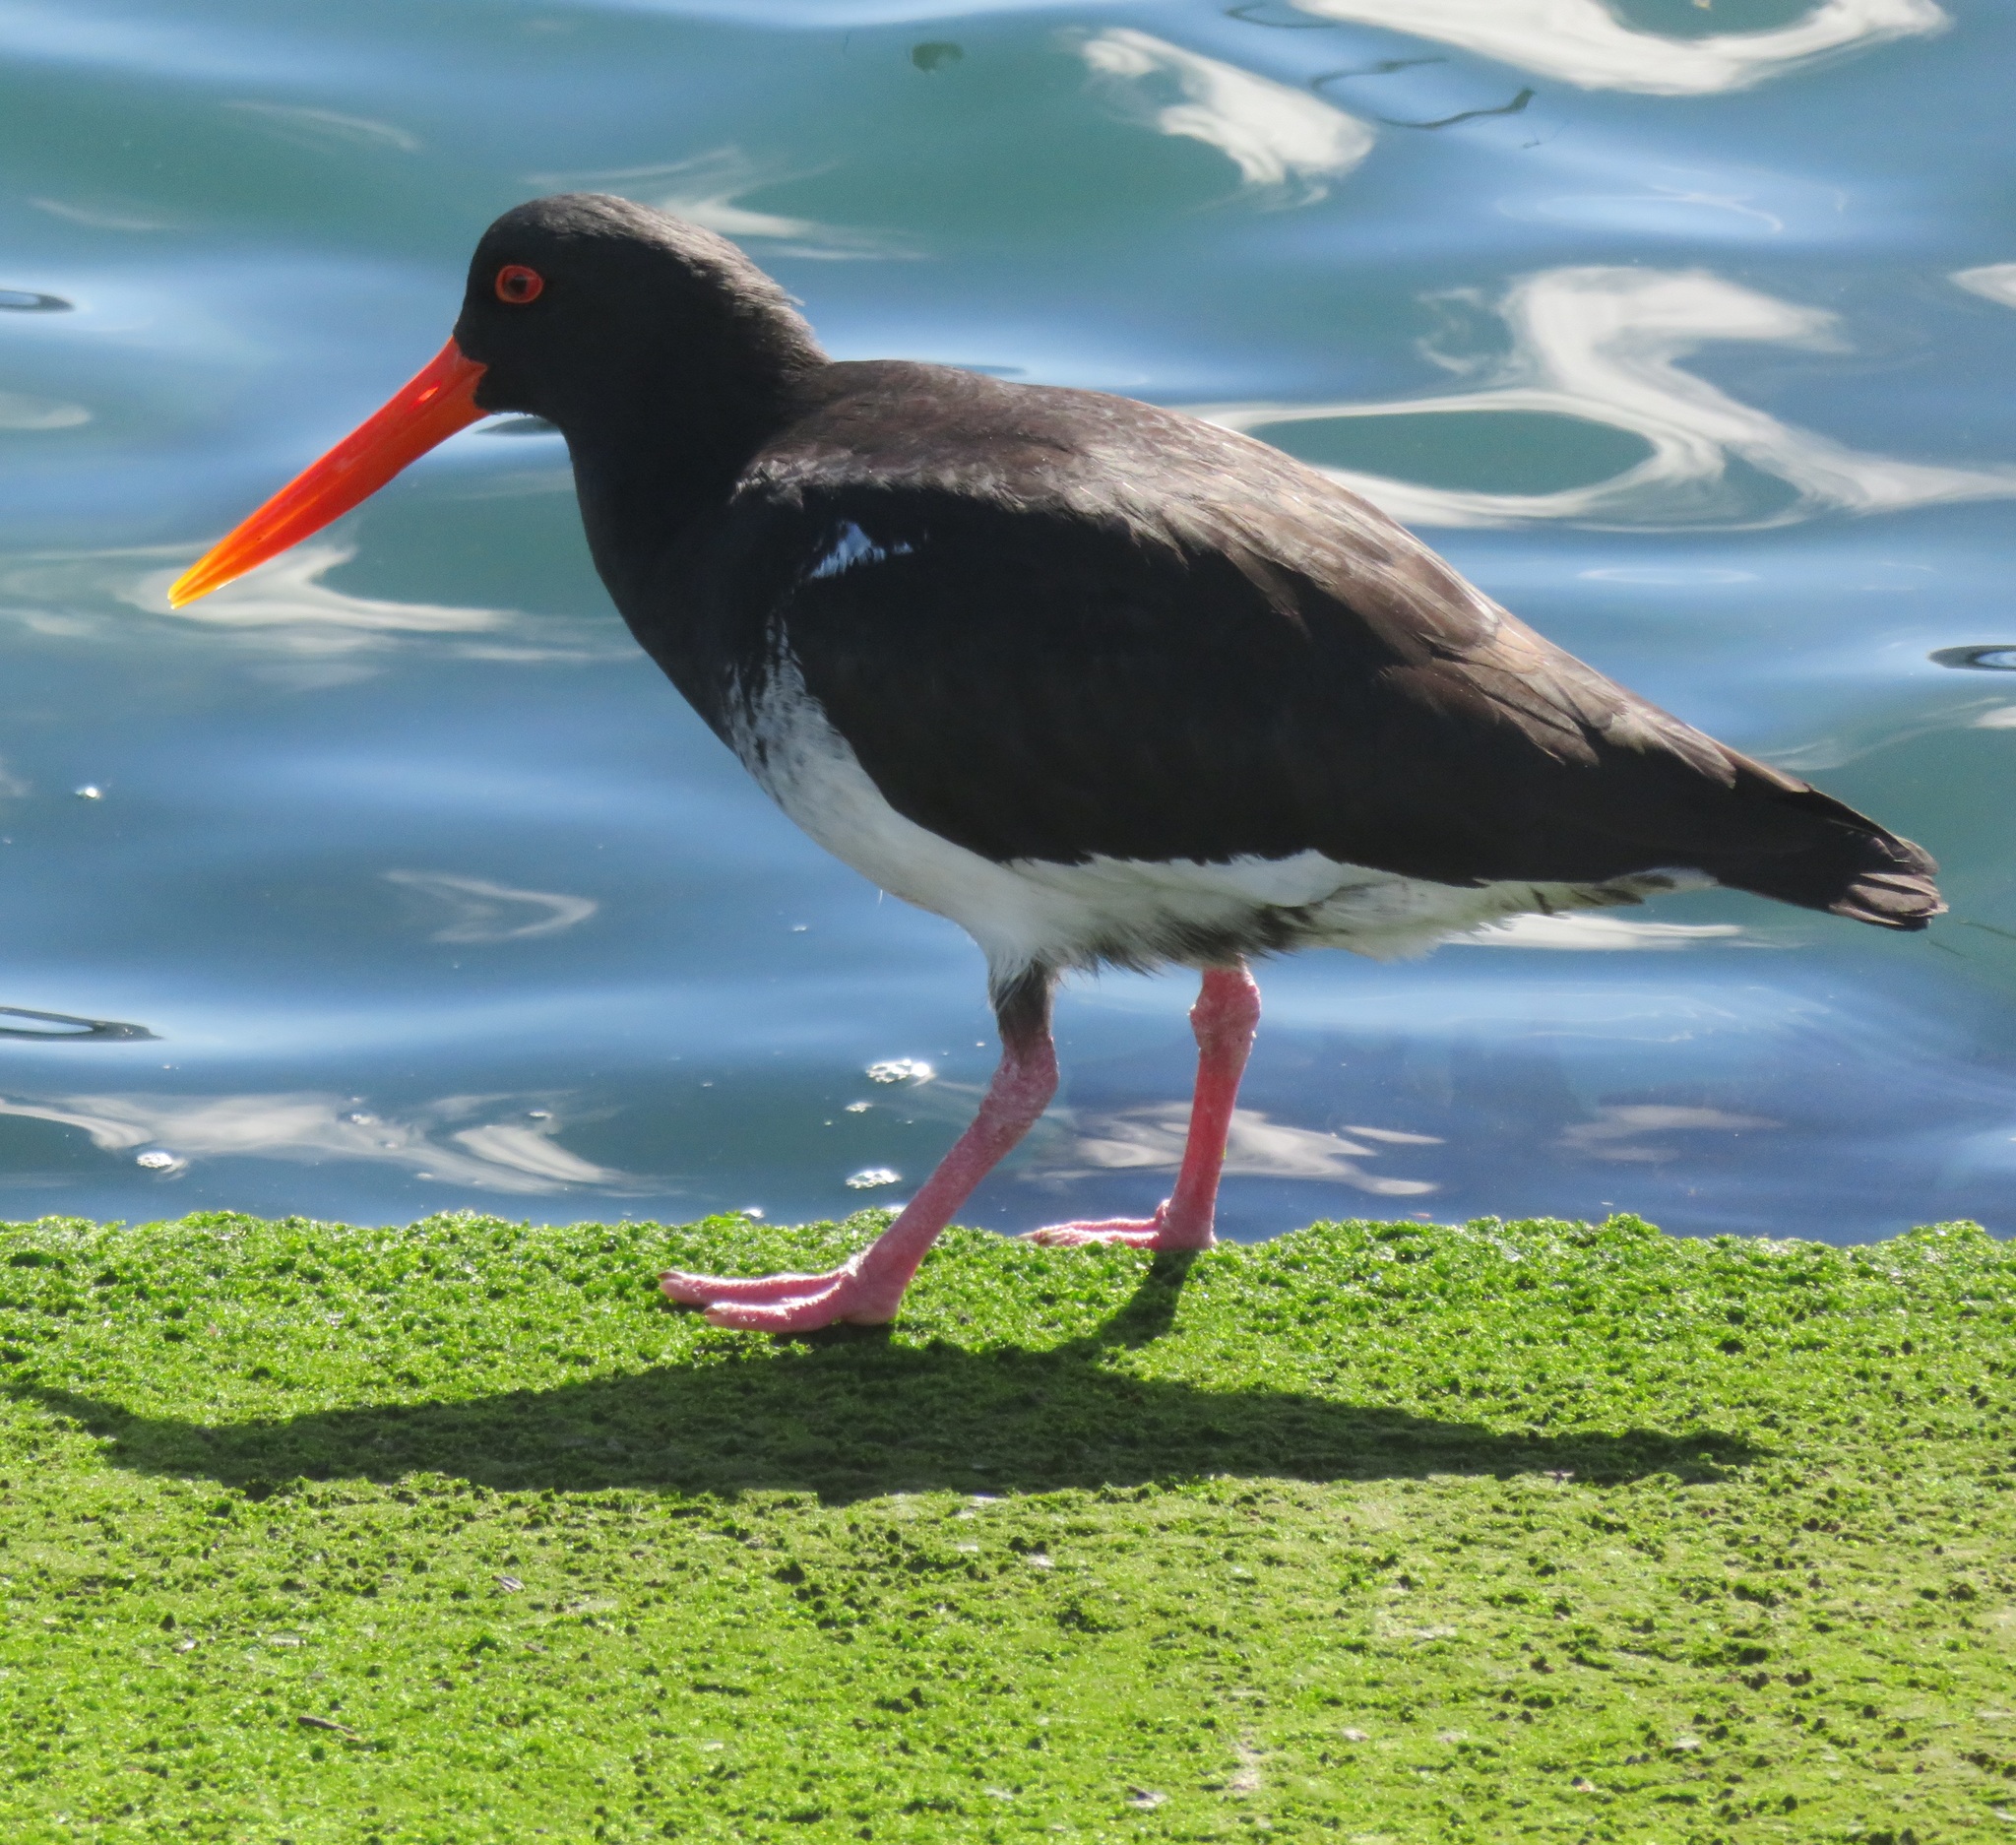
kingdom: Animalia
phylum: Chordata
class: Aves
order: Charadriiformes
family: Haematopodidae
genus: Haematopus
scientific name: Haematopus unicolor
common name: Variable oystercatcher
